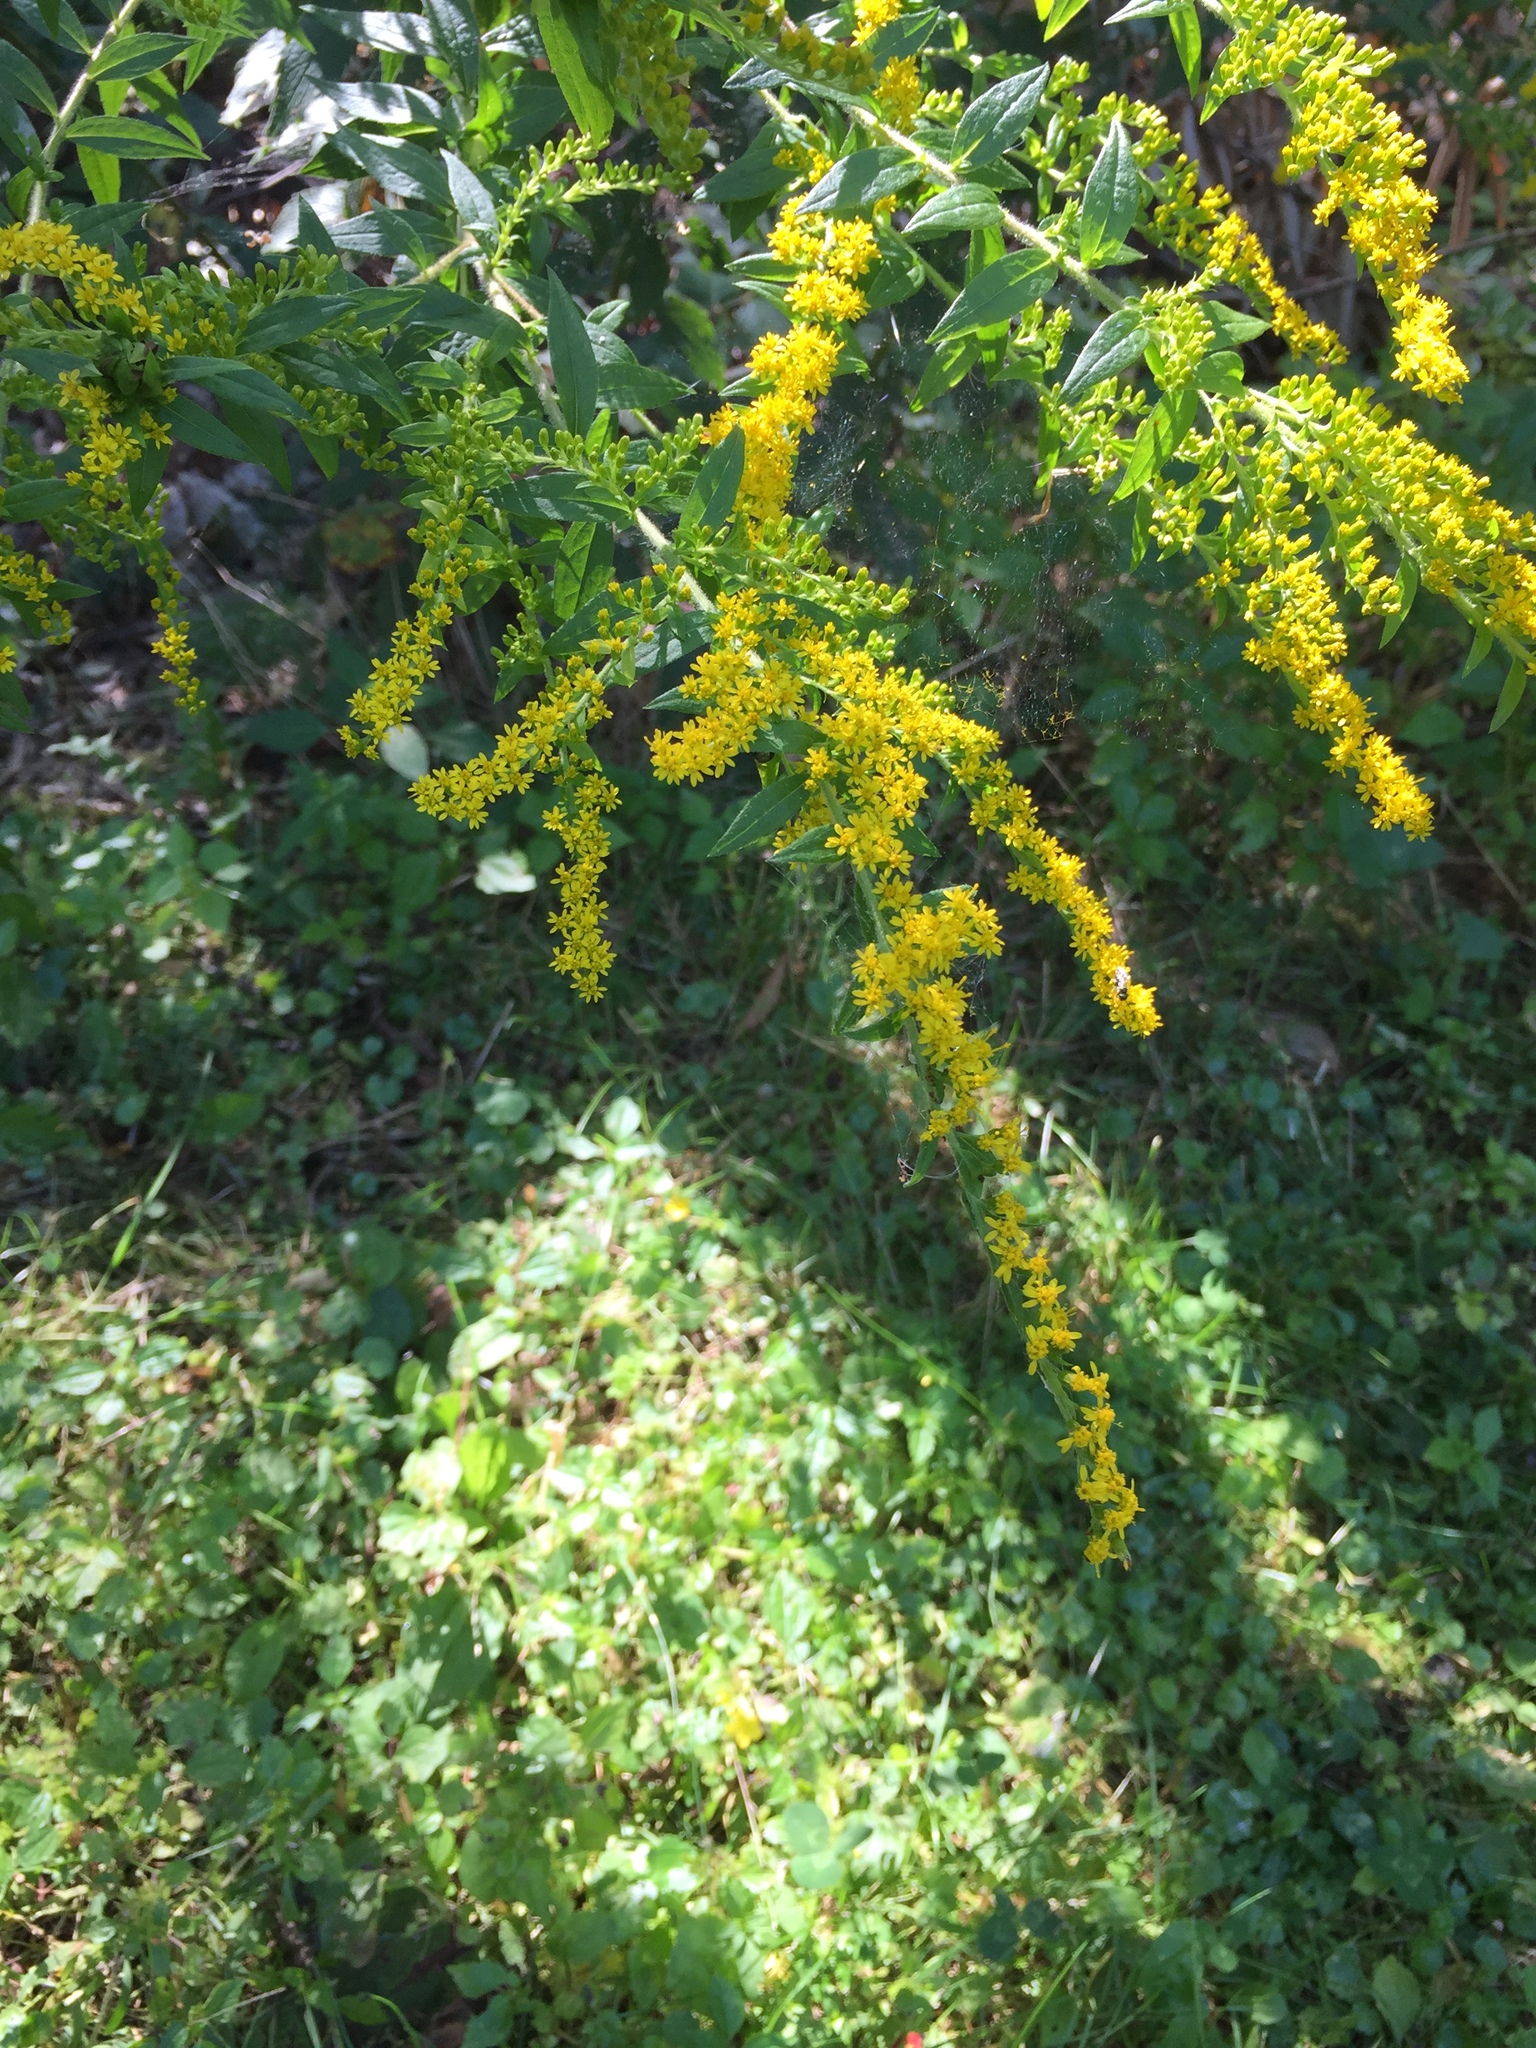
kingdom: Plantae
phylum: Tracheophyta
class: Magnoliopsida
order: Asterales
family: Asteraceae
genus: Solidago
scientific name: Solidago rugosa
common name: Rough-stemmed goldenrod
